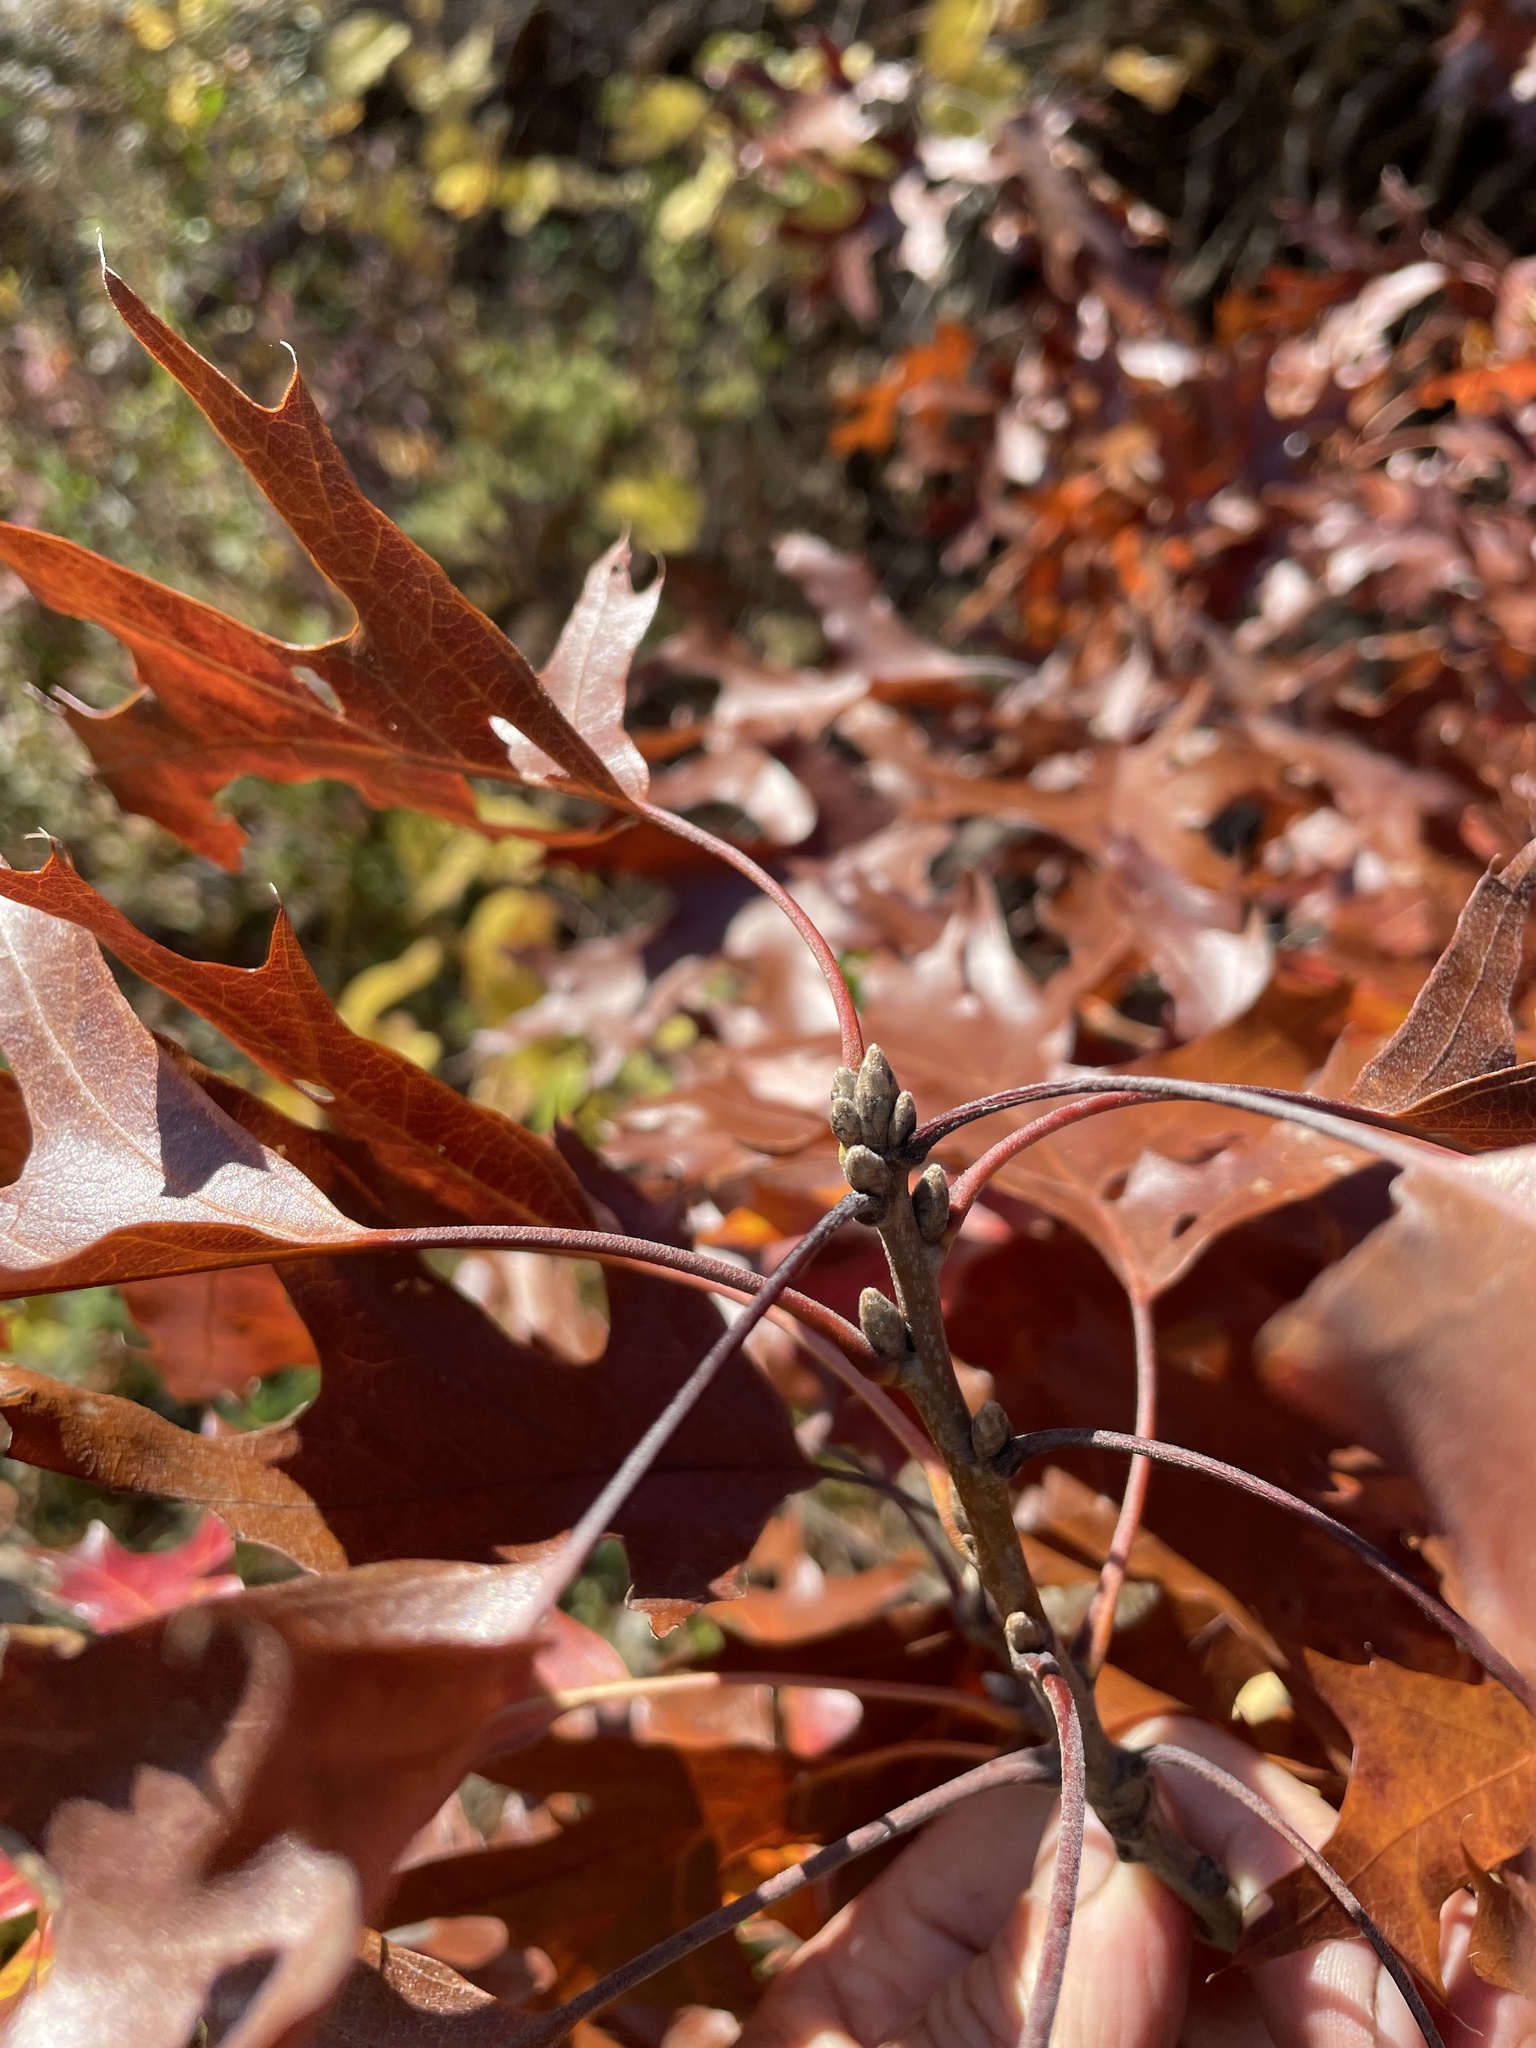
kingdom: Plantae
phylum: Tracheophyta
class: Magnoliopsida
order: Fagales
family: Fagaceae
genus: Quercus
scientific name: Quercus velutina
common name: Black oak
